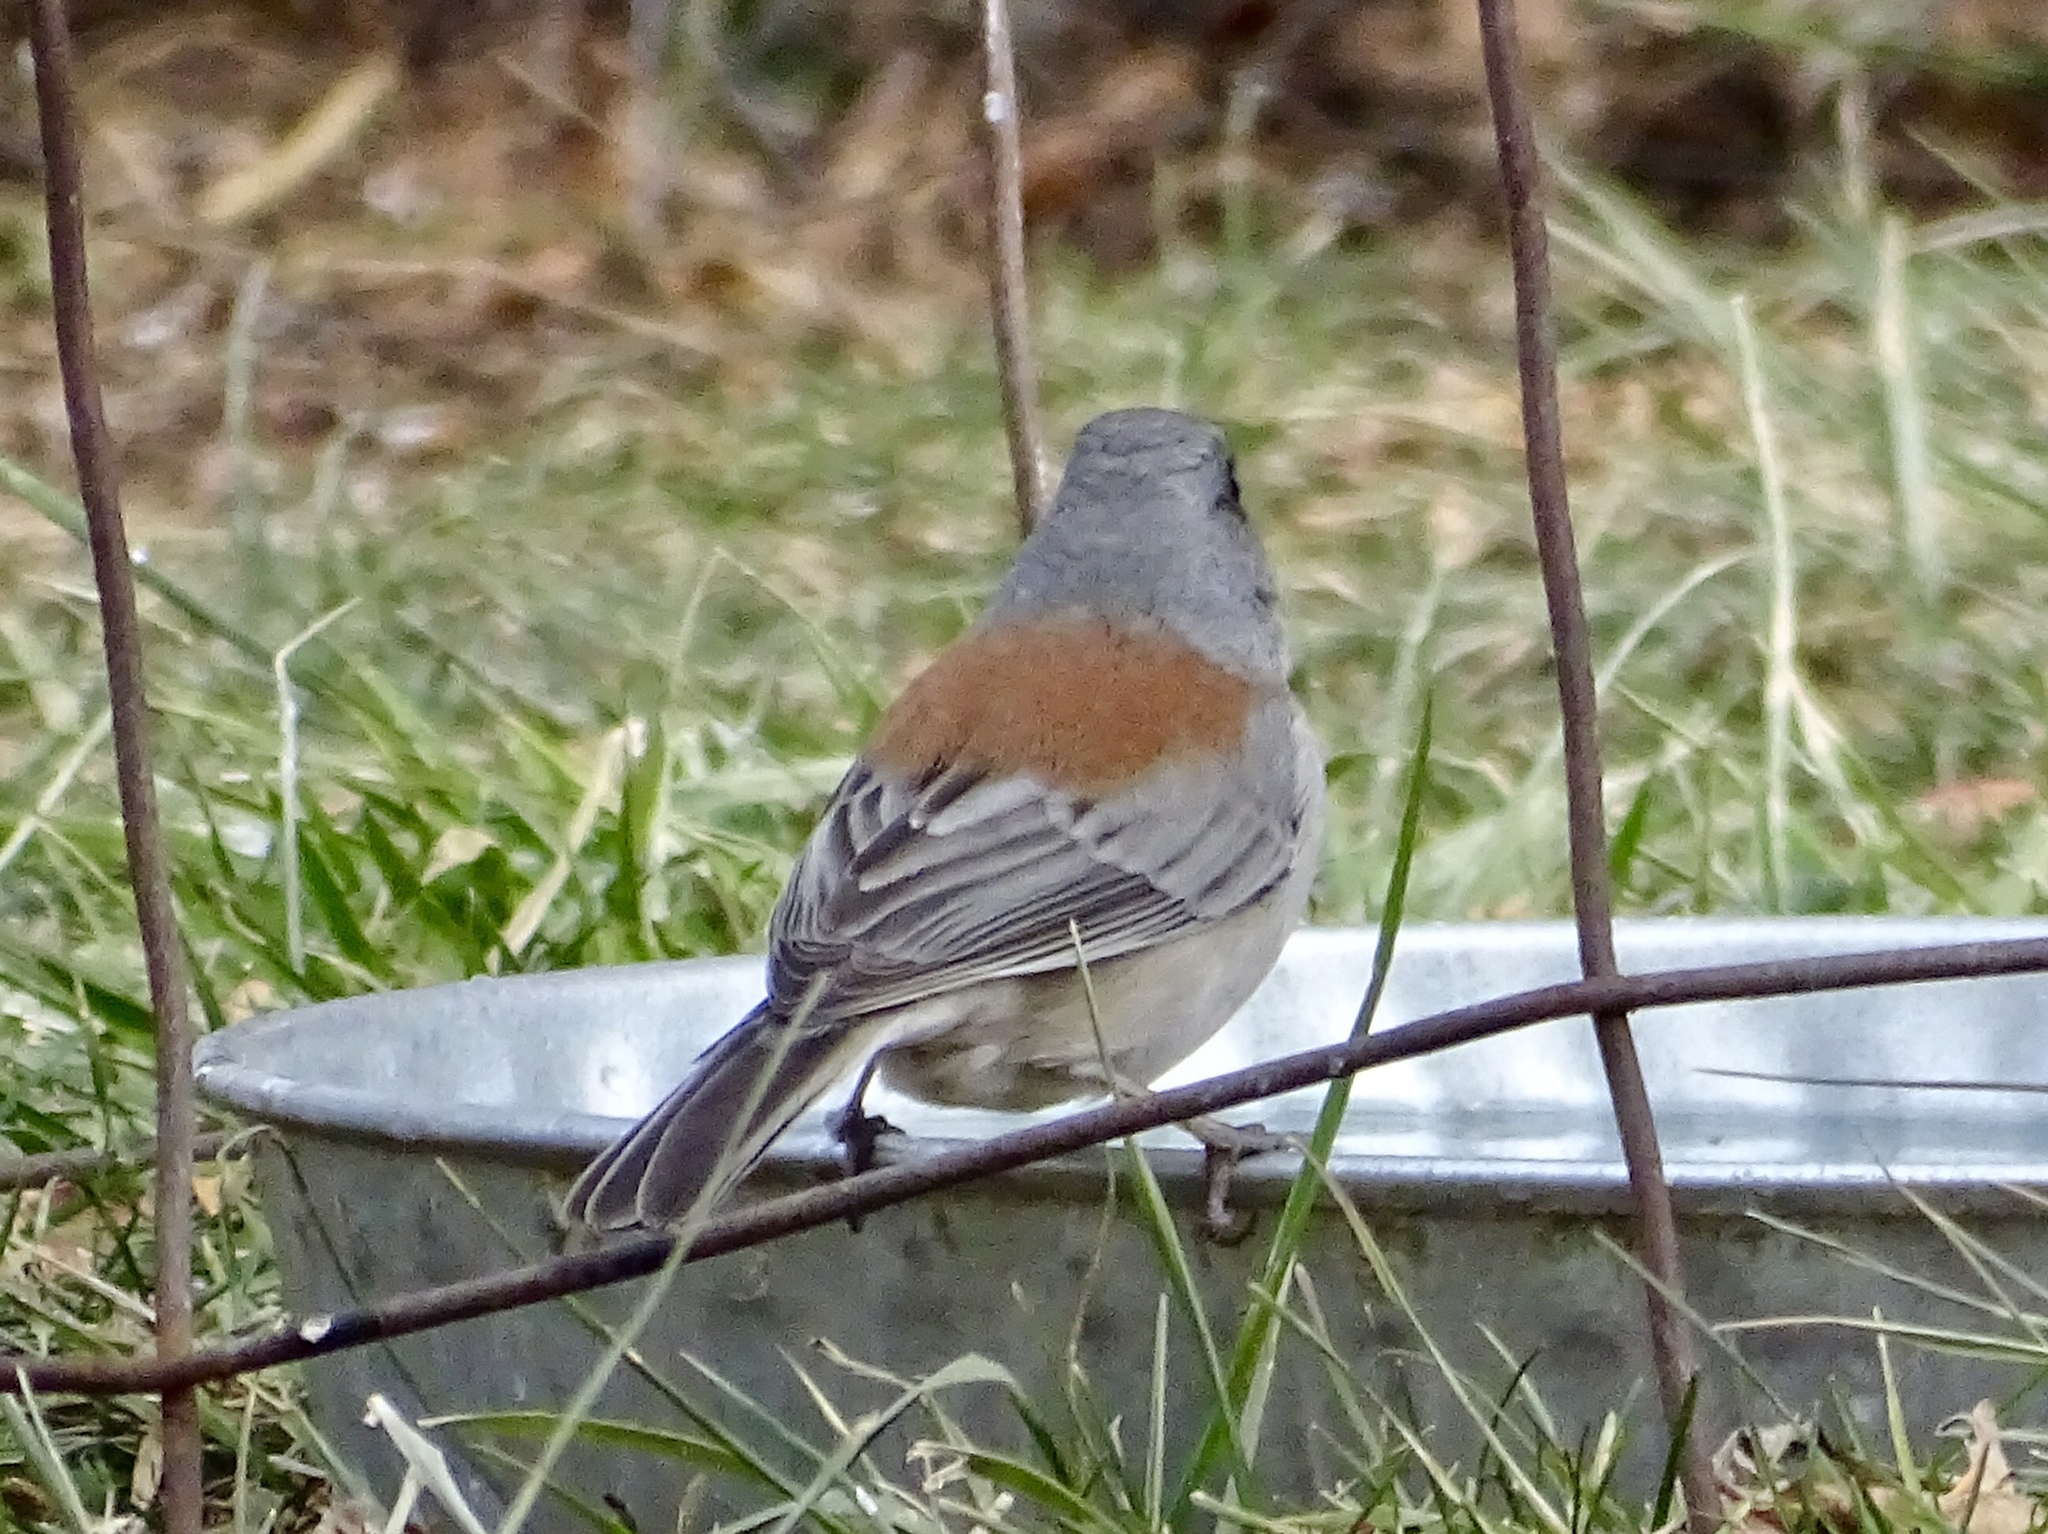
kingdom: Animalia
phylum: Chordata
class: Aves
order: Passeriformes
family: Passerellidae
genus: Junco
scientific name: Junco hyemalis
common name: Dark-eyed junco
